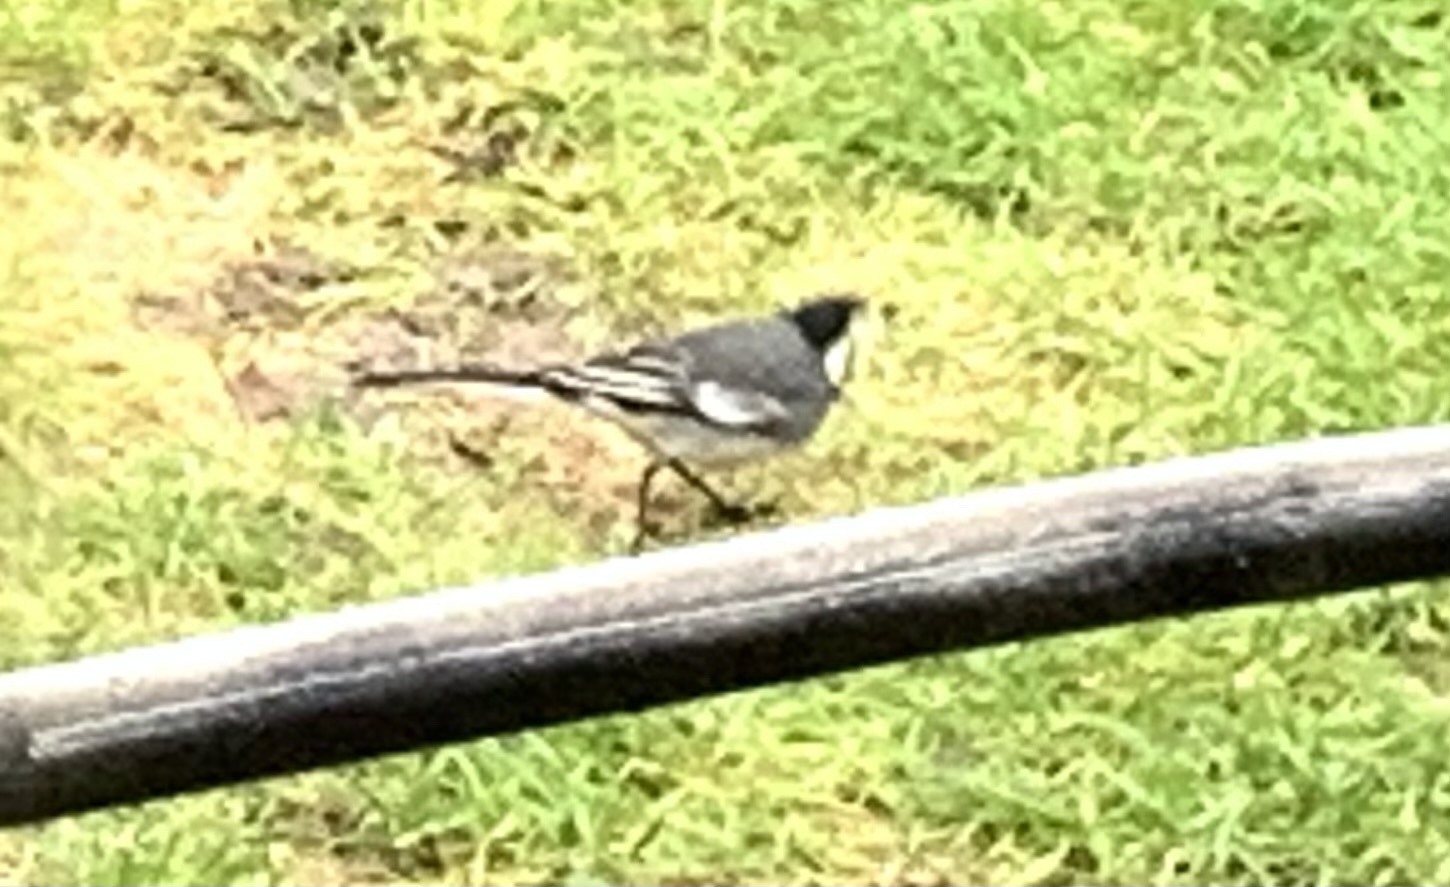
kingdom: Animalia
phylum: Chordata
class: Aves
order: Passeriformes
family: Motacillidae
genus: Motacilla
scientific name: Motacilla alba
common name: White wagtail
